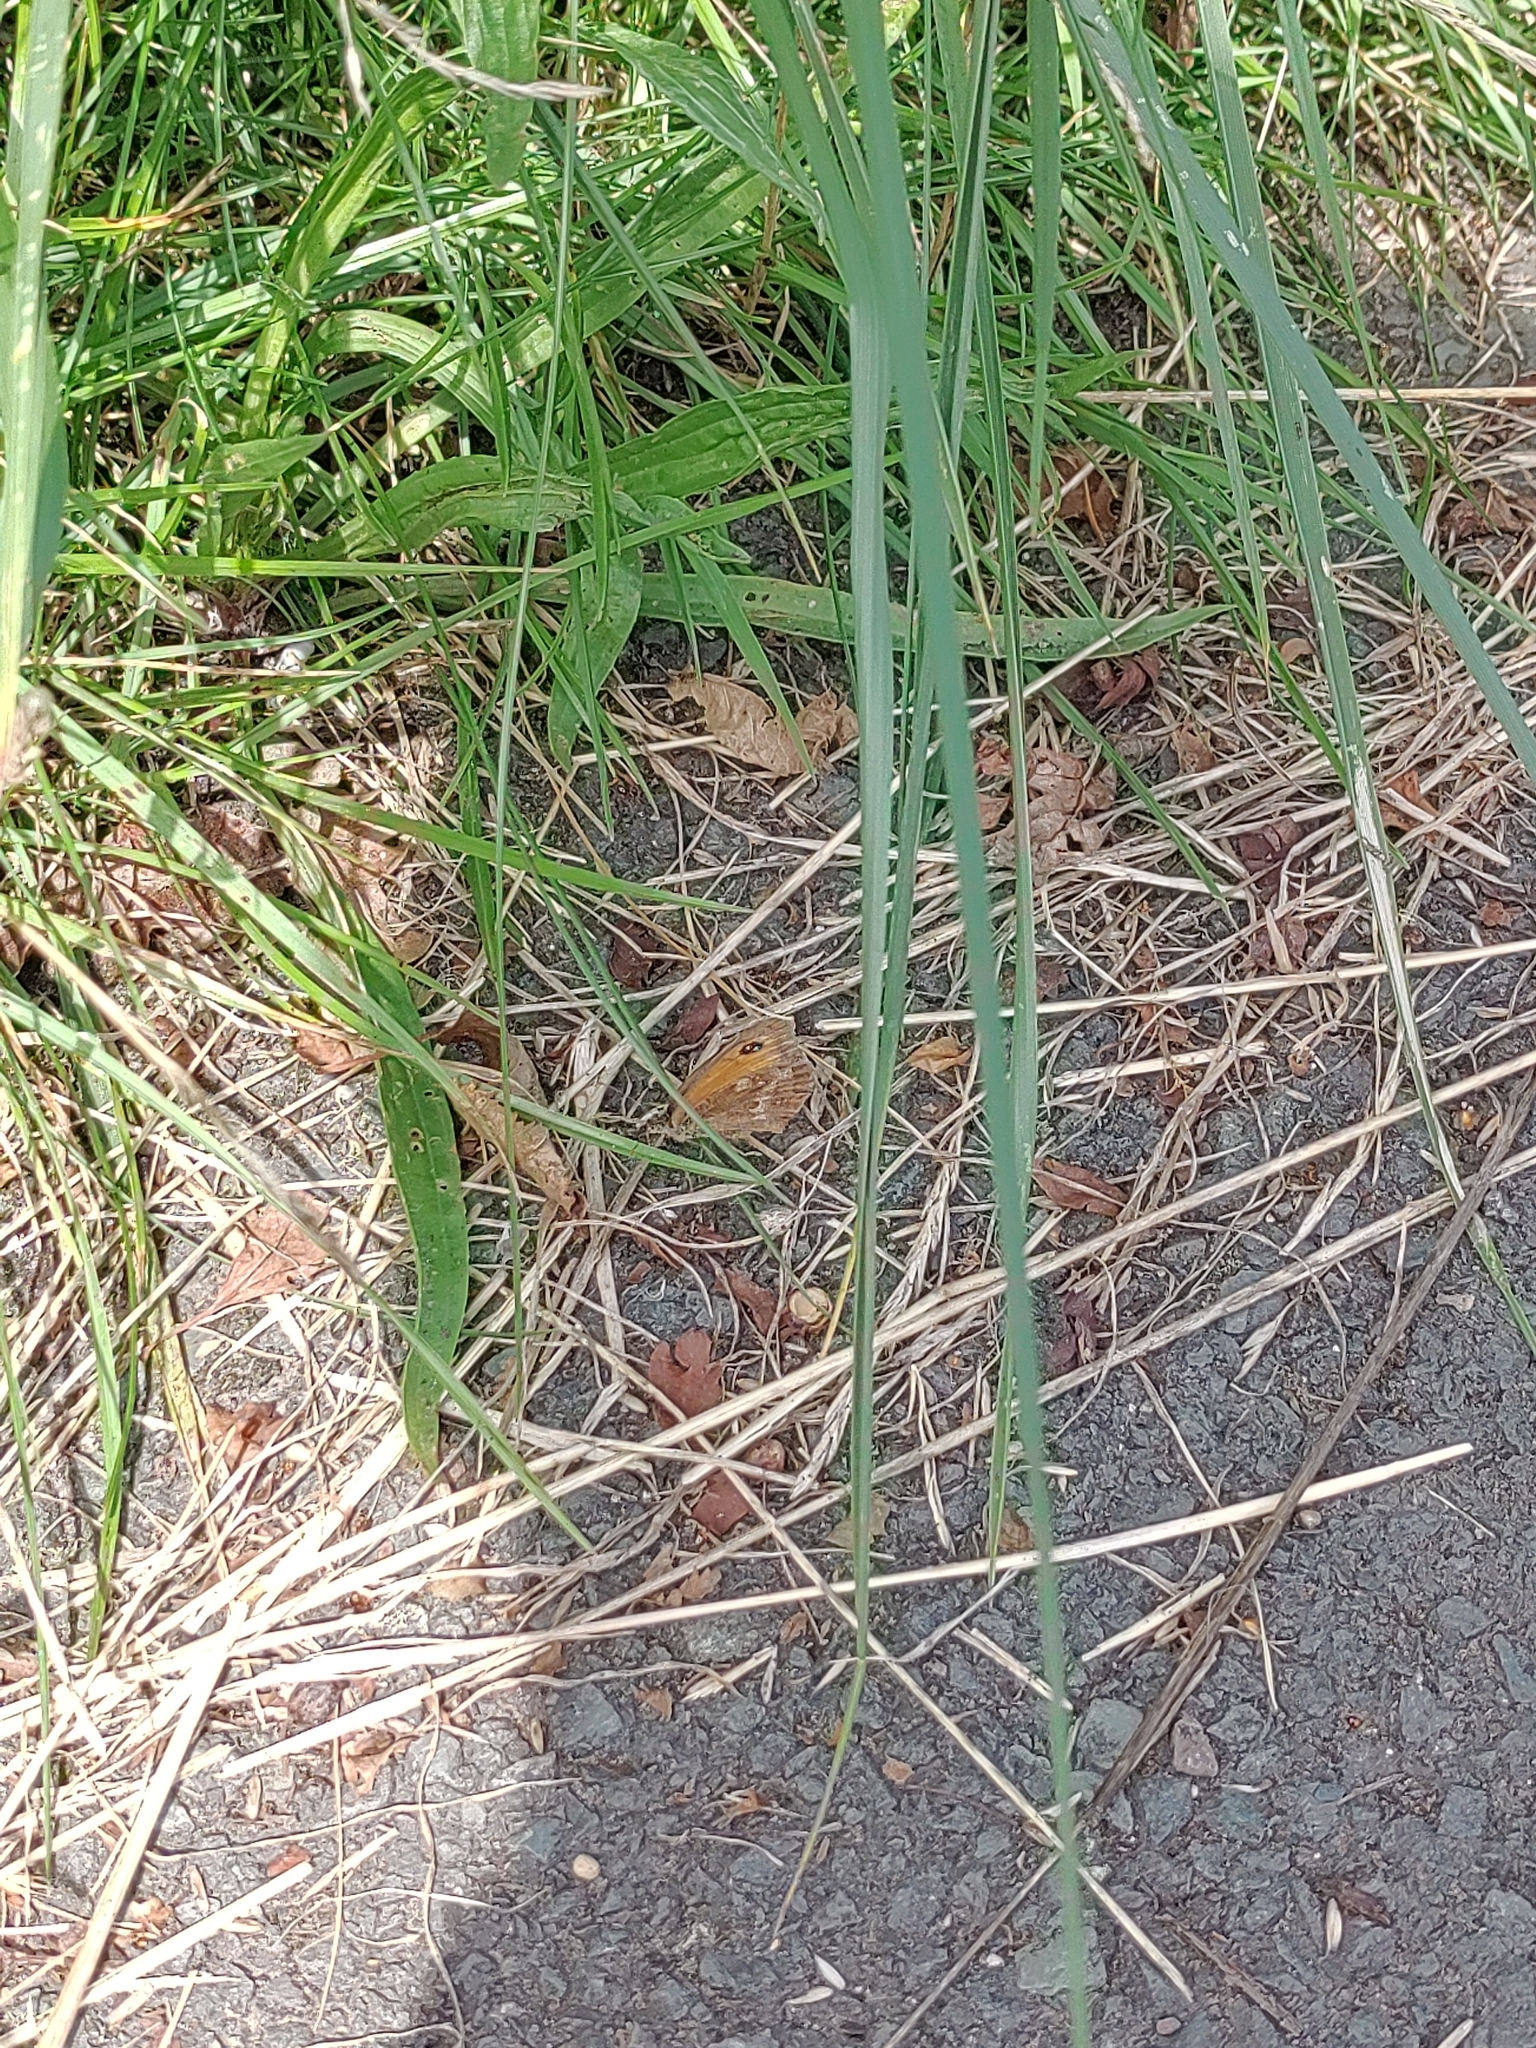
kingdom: Animalia
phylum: Arthropoda
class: Insecta
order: Lepidoptera
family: Nymphalidae
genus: Pyronia
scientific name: Pyronia tithonus
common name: Gatekeeper
